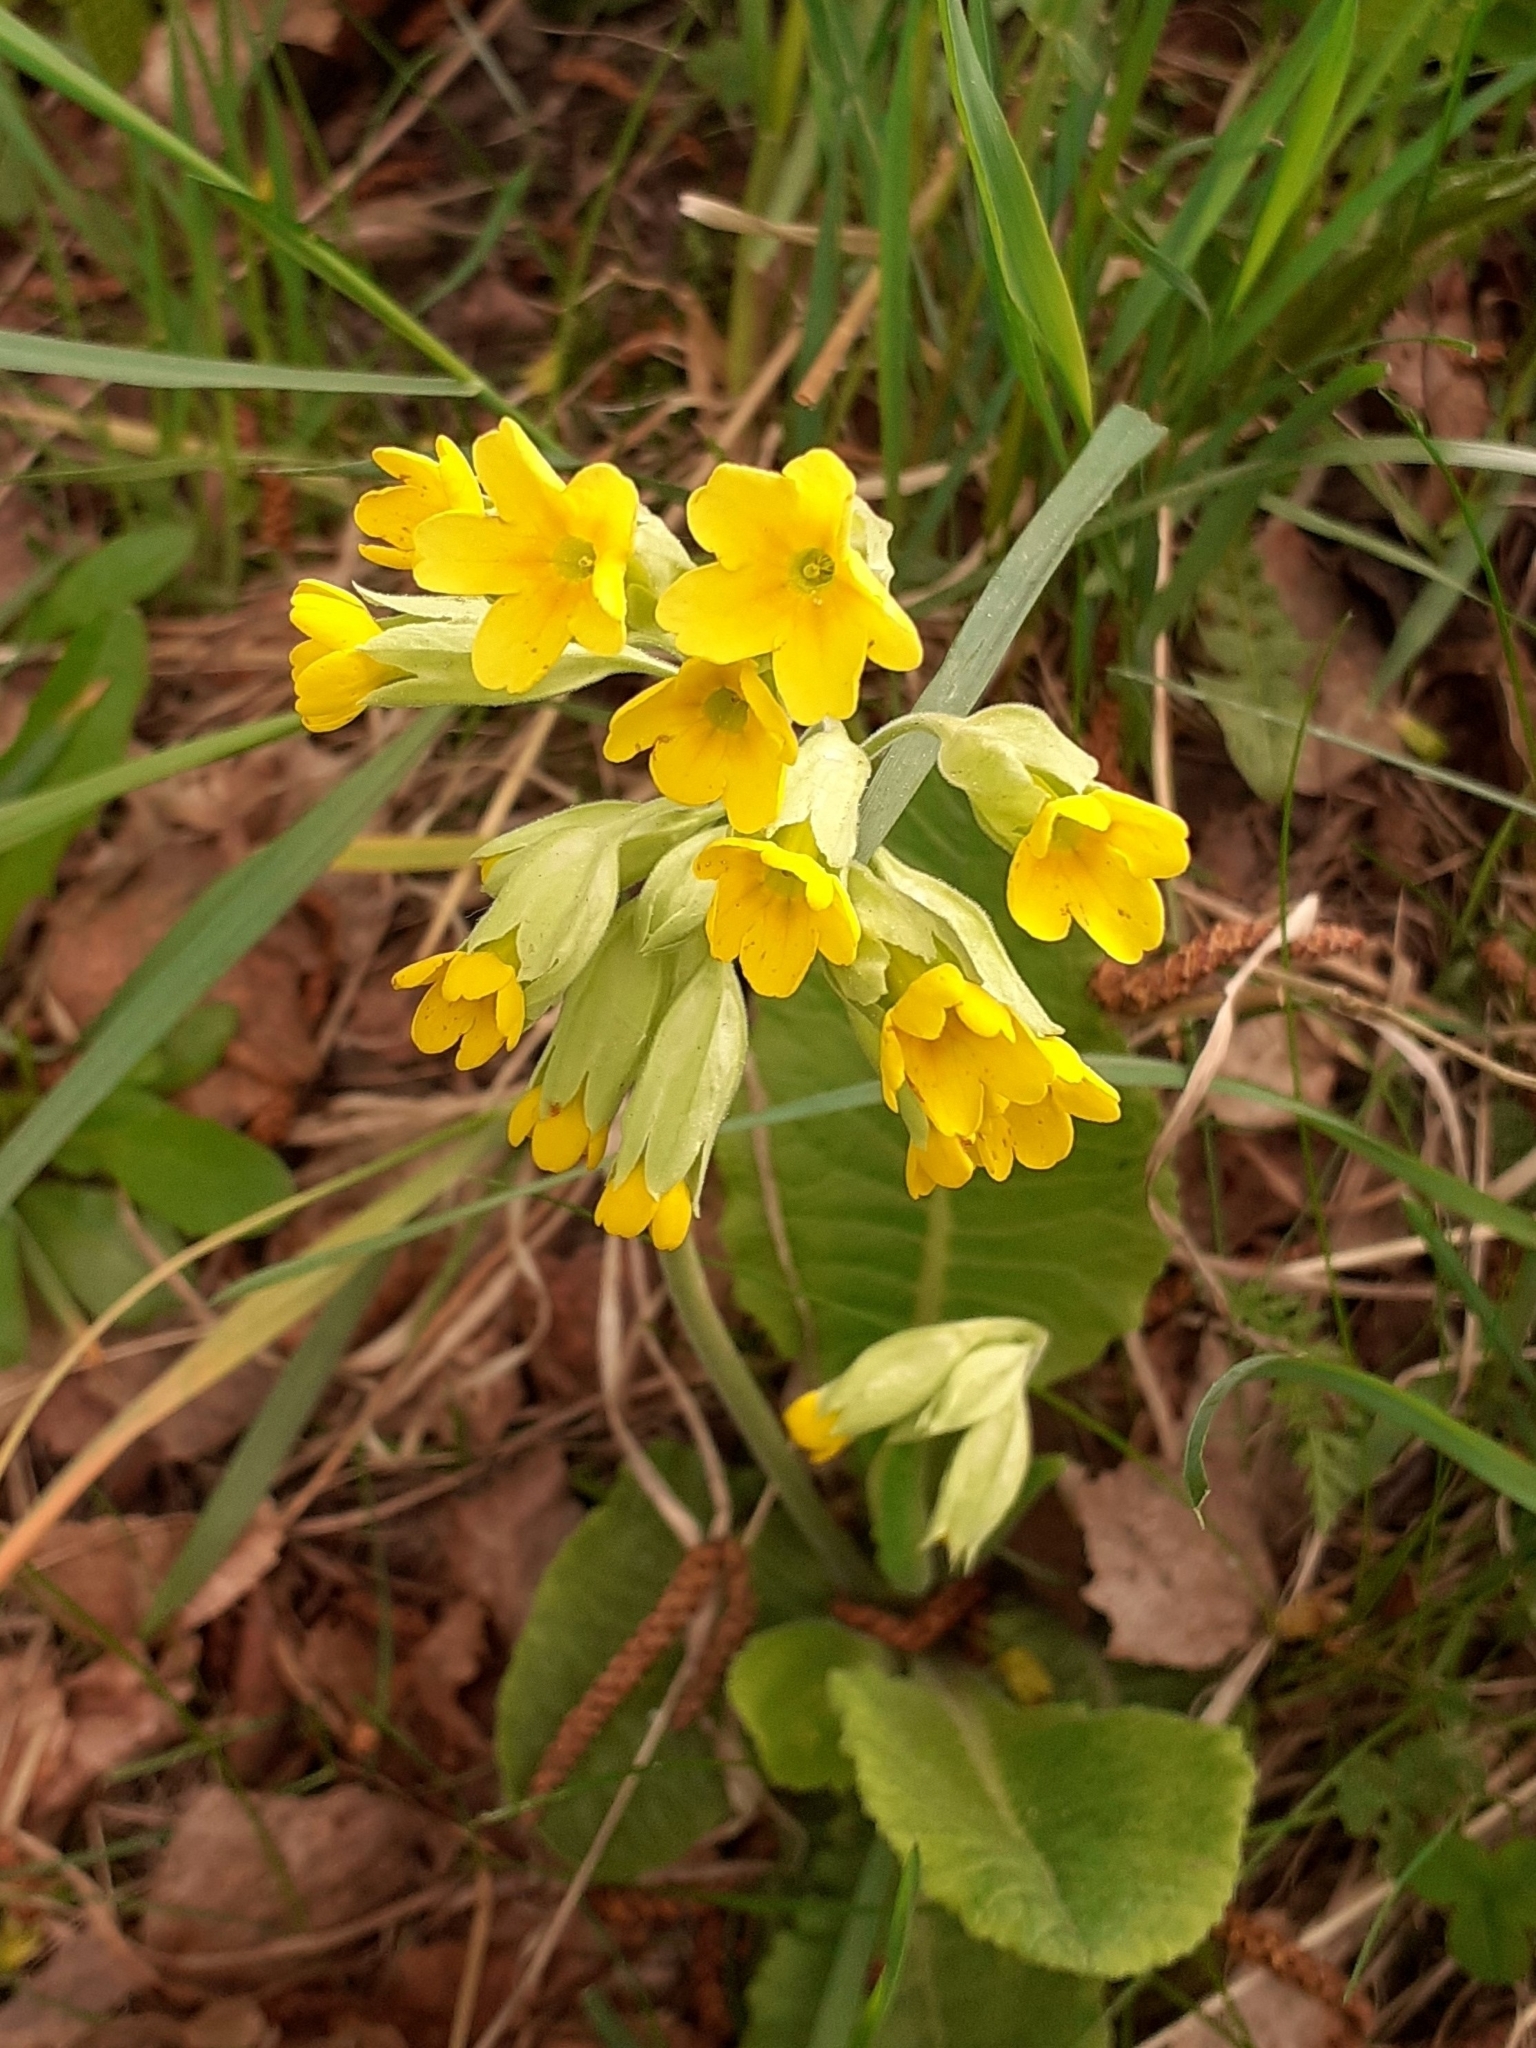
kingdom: Plantae
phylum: Tracheophyta
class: Magnoliopsida
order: Ericales
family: Primulaceae
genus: Primula
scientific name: Primula veris
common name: Cowslip
